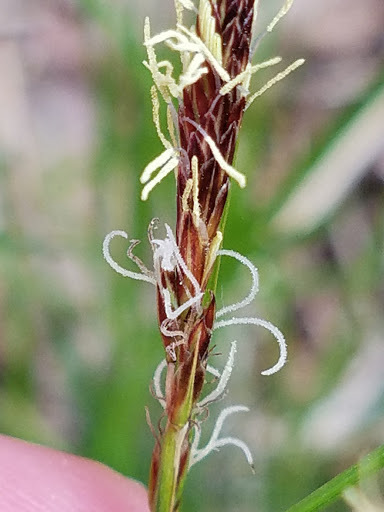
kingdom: Plantae
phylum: Tracheophyta
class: Liliopsida
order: Poales
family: Cyperaceae
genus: Carex
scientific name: Carex pensylvanica
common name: Common oak sedge
